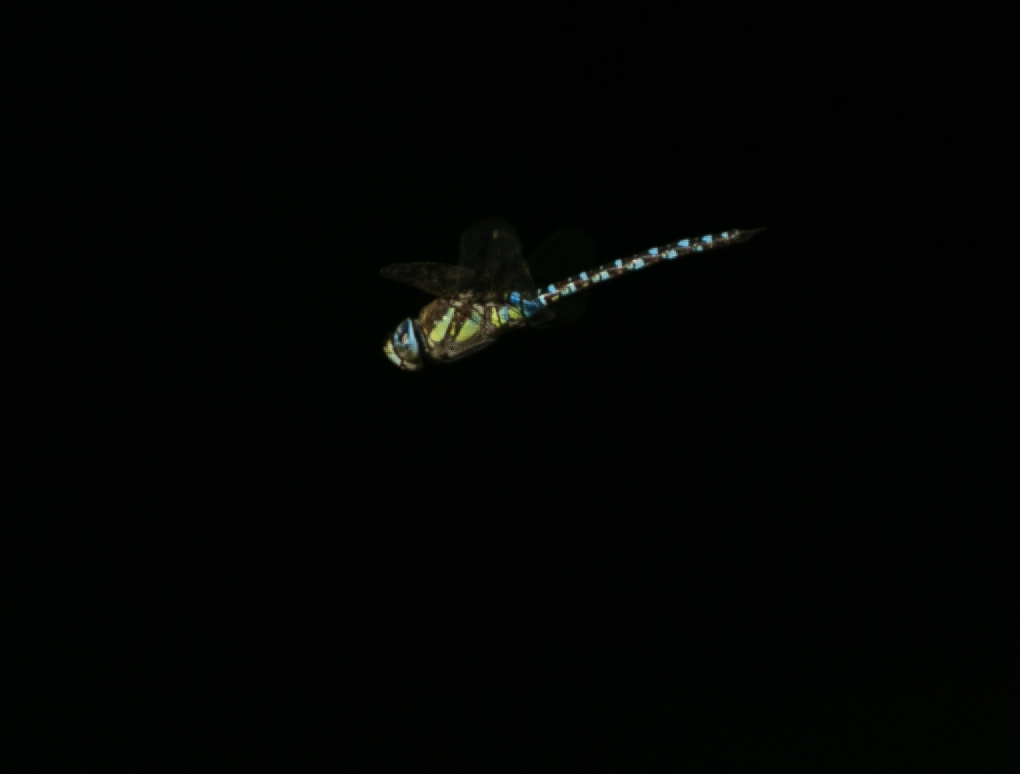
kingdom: Animalia
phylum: Arthropoda
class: Insecta
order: Odonata
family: Aeshnidae
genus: Aeshna
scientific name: Aeshna mixta
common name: Migrant hawker
